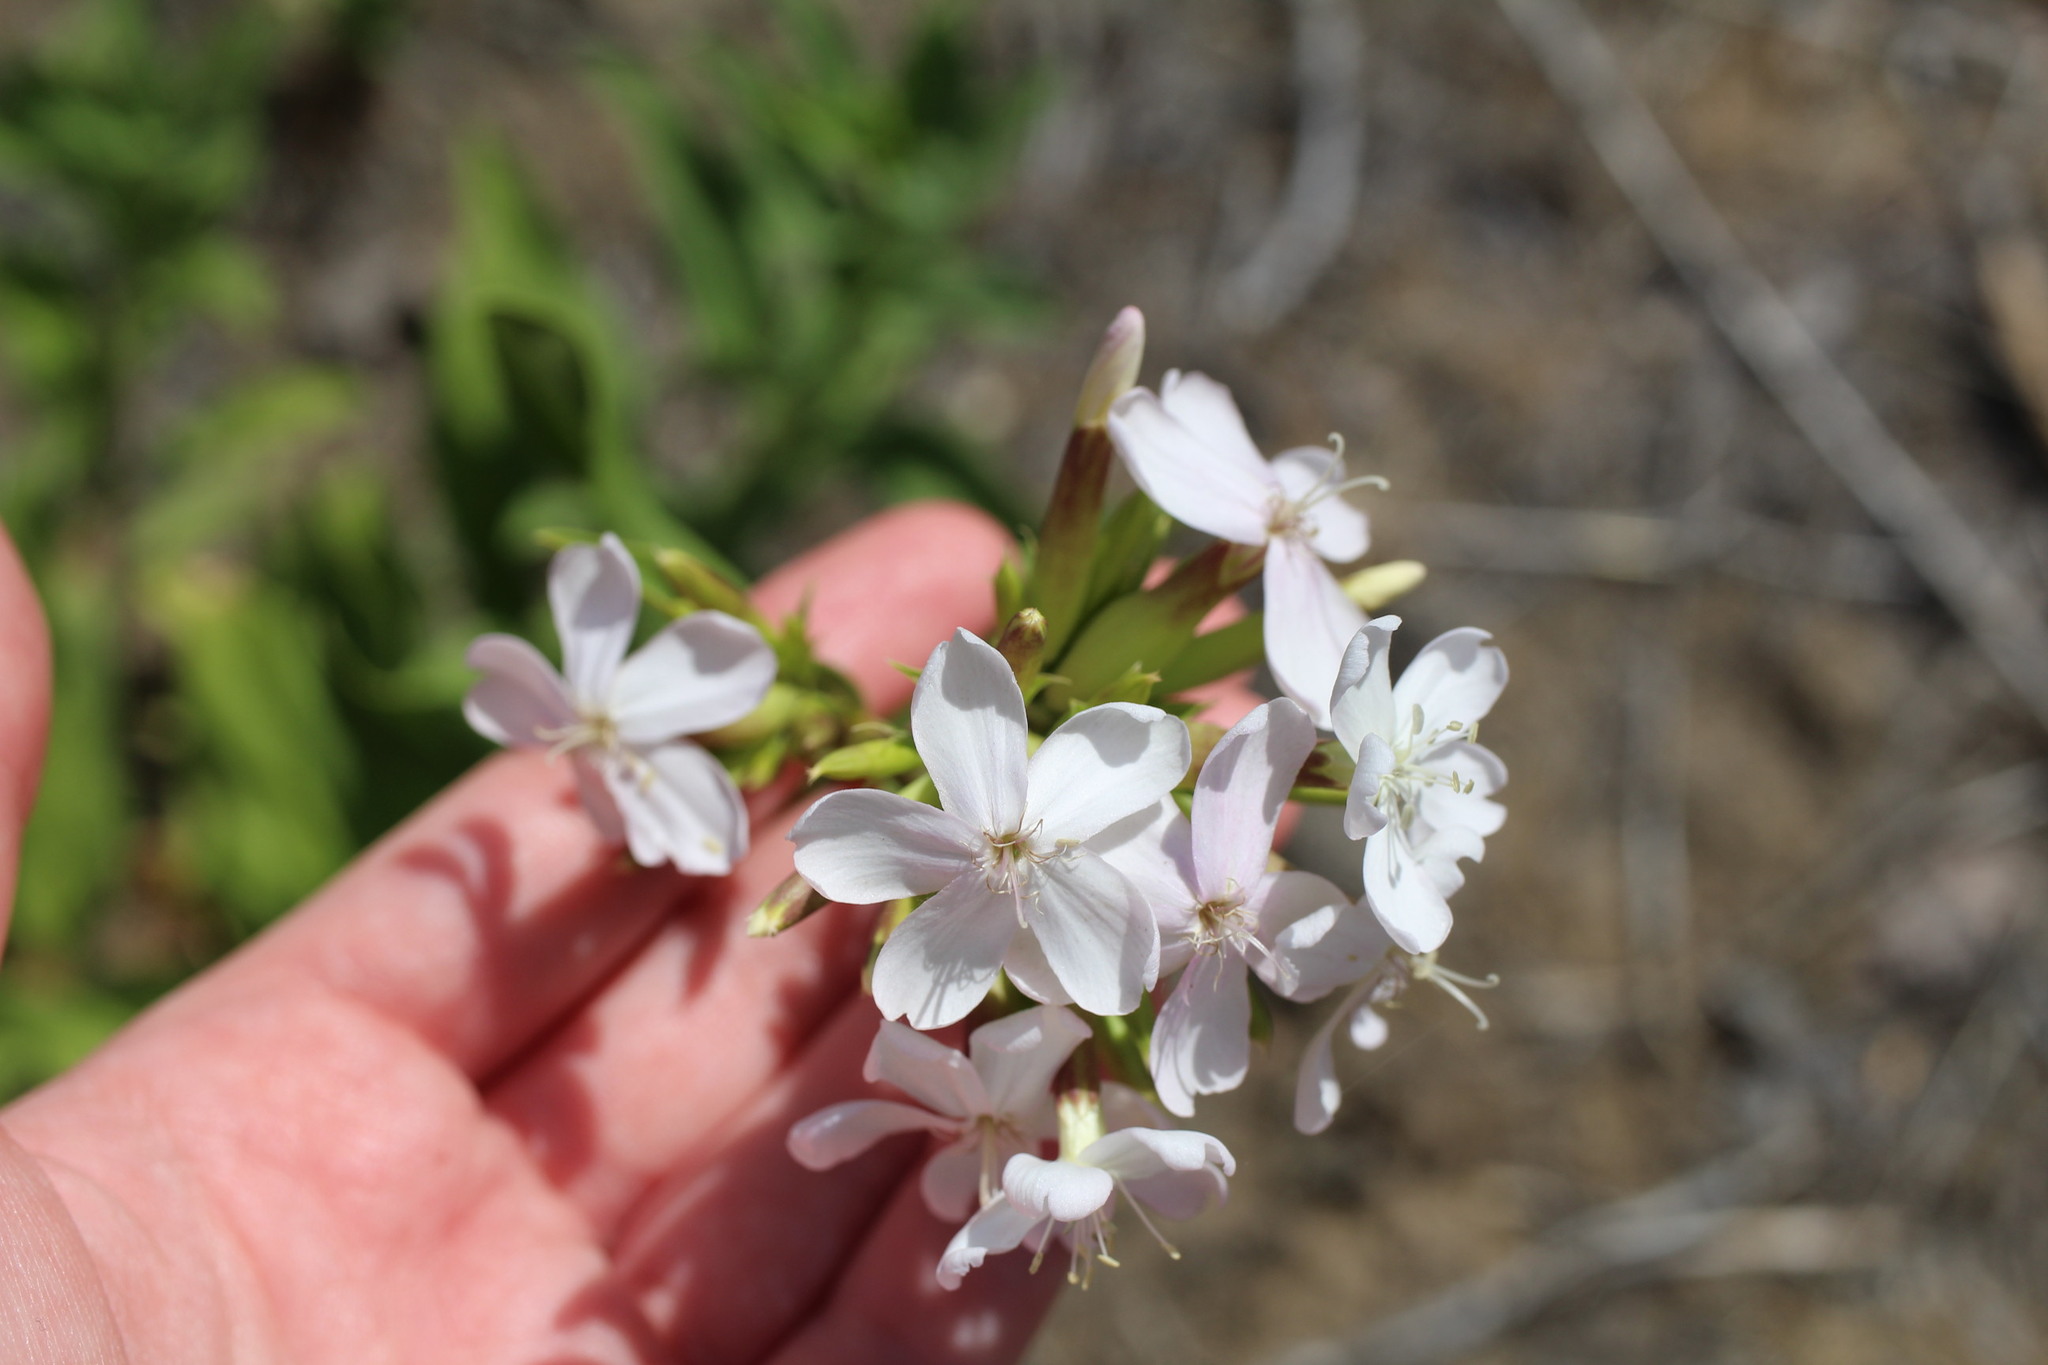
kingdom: Plantae
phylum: Tracheophyta
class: Magnoliopsida
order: Caryophyllales
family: Caryophyllaceae
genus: Saponaria
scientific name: Saponaria officinalis
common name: Soapwort
